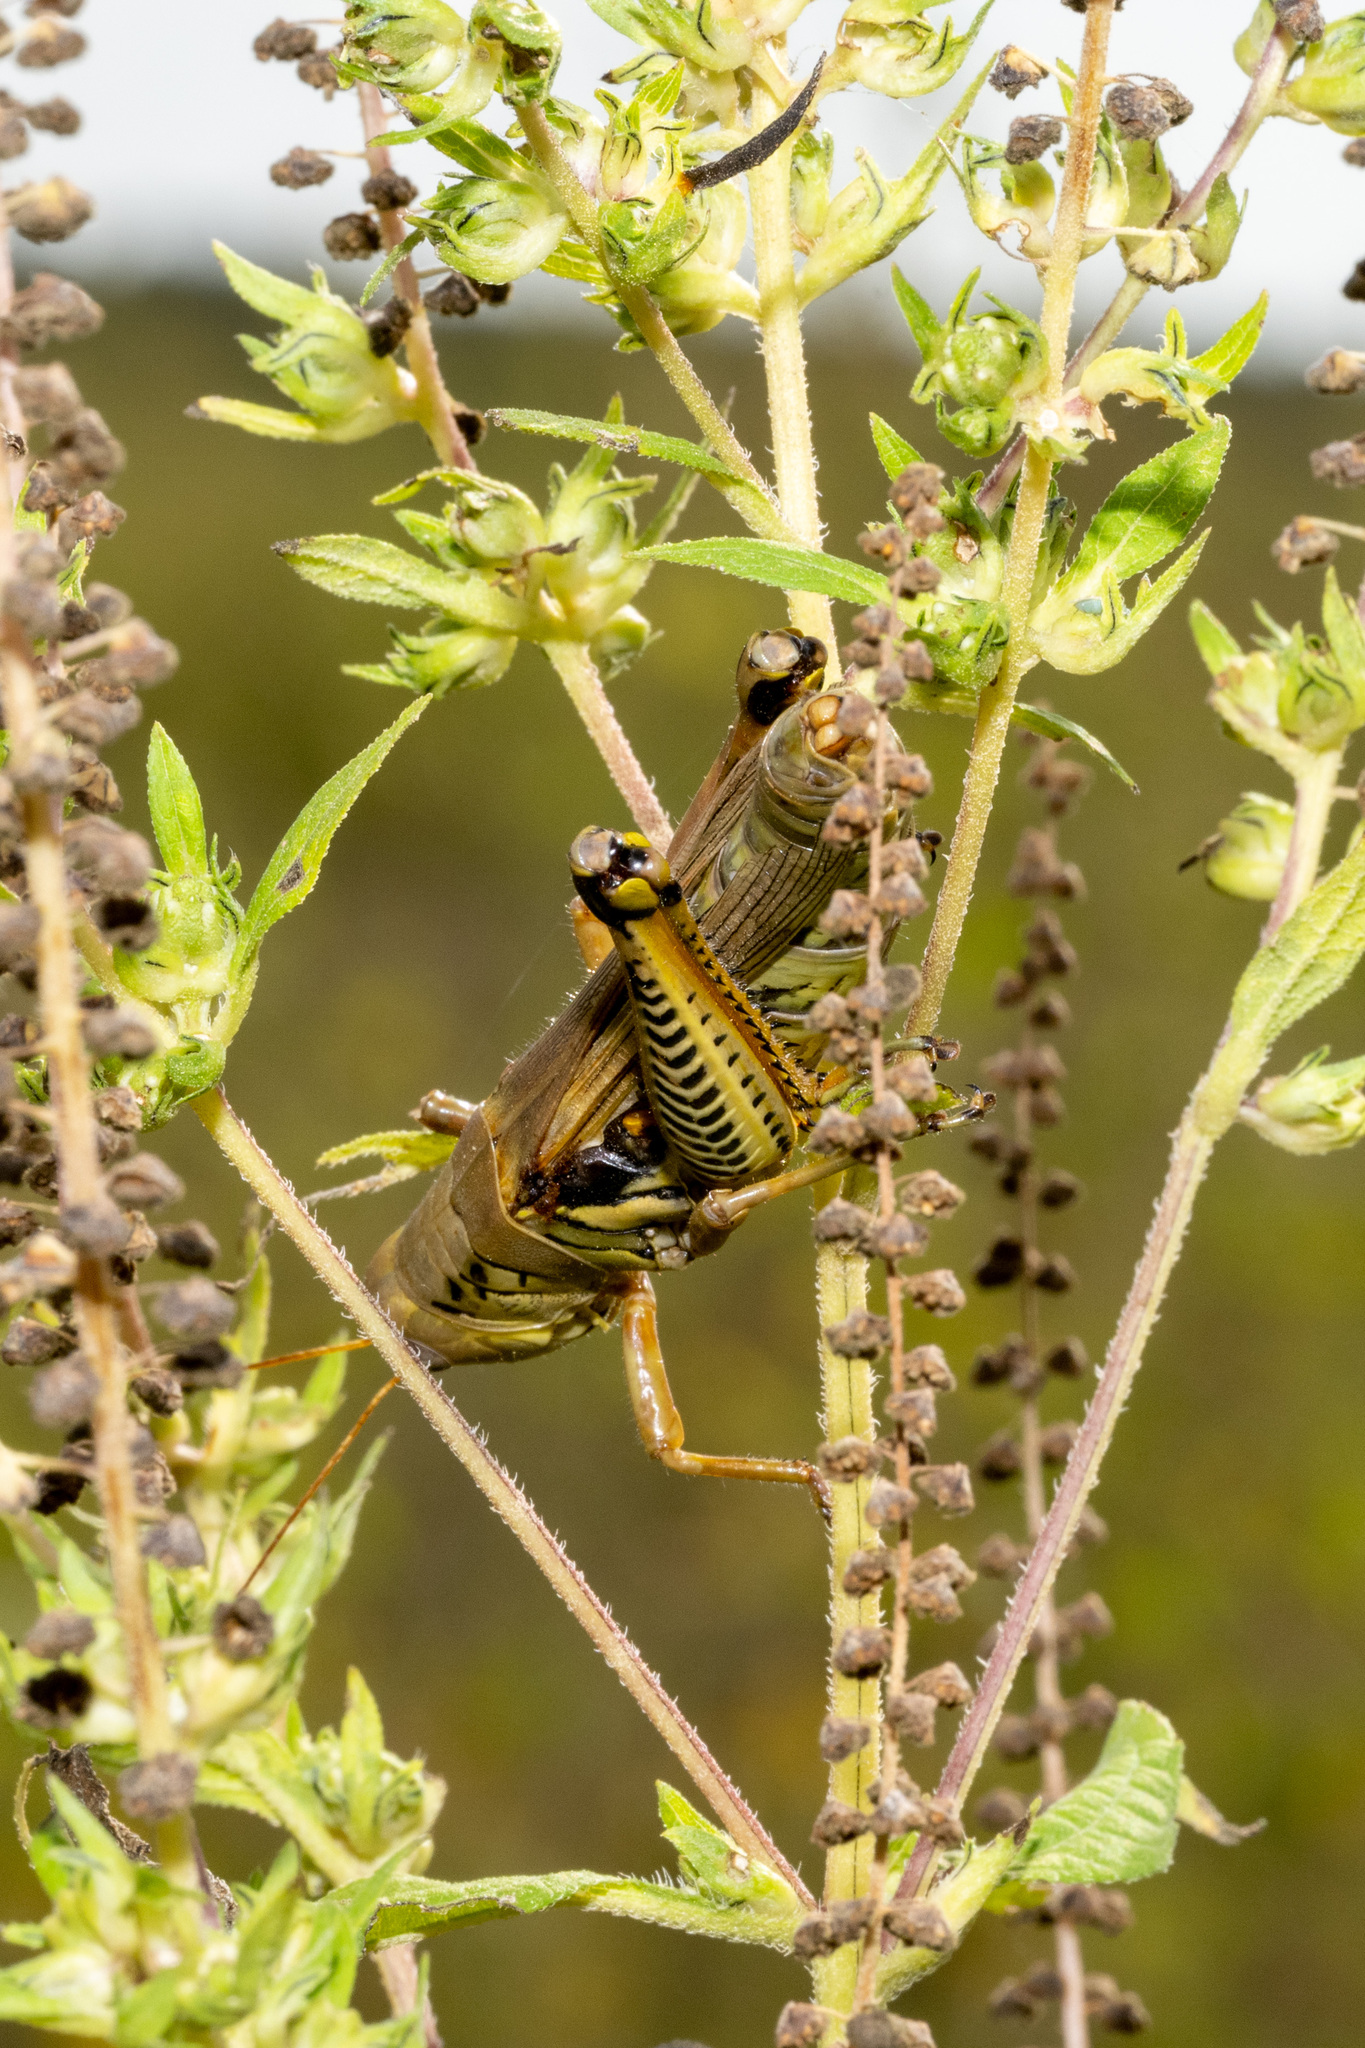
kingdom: Animalia
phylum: Arthropoda
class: Insecta
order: Orthoptera
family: Acrididae
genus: Melanoplus
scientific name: Melanoplus differentialis
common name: Differential grasshopper
